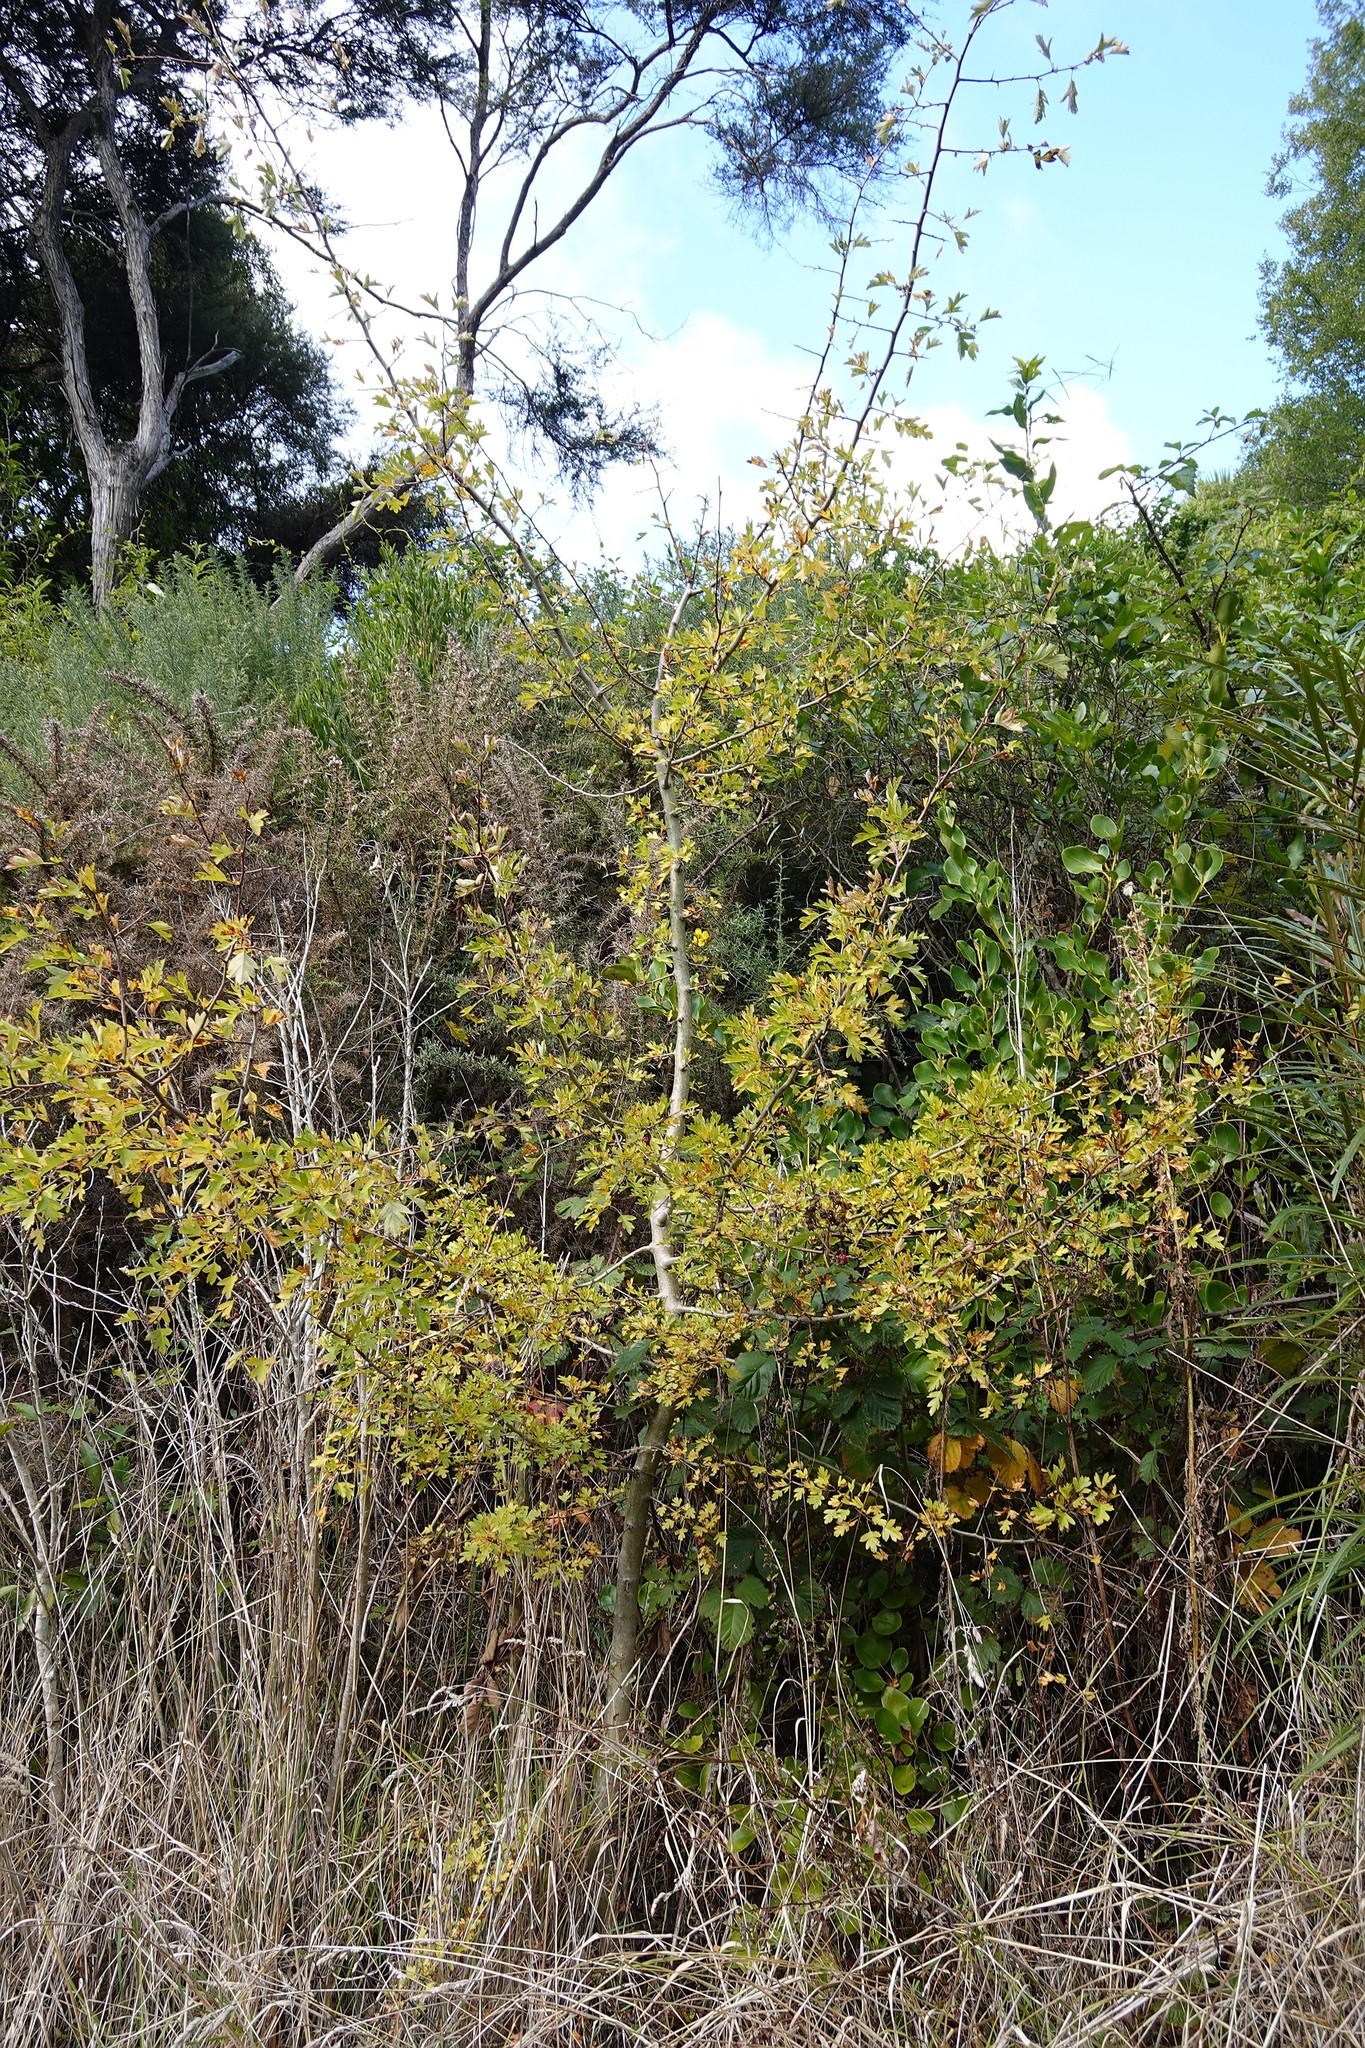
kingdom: Plantae
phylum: Tracheophyta
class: Magnoliopsida
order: Rosales
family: Rosaceae
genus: Crataegus
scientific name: Crataegus monogyna
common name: Hawthorn
